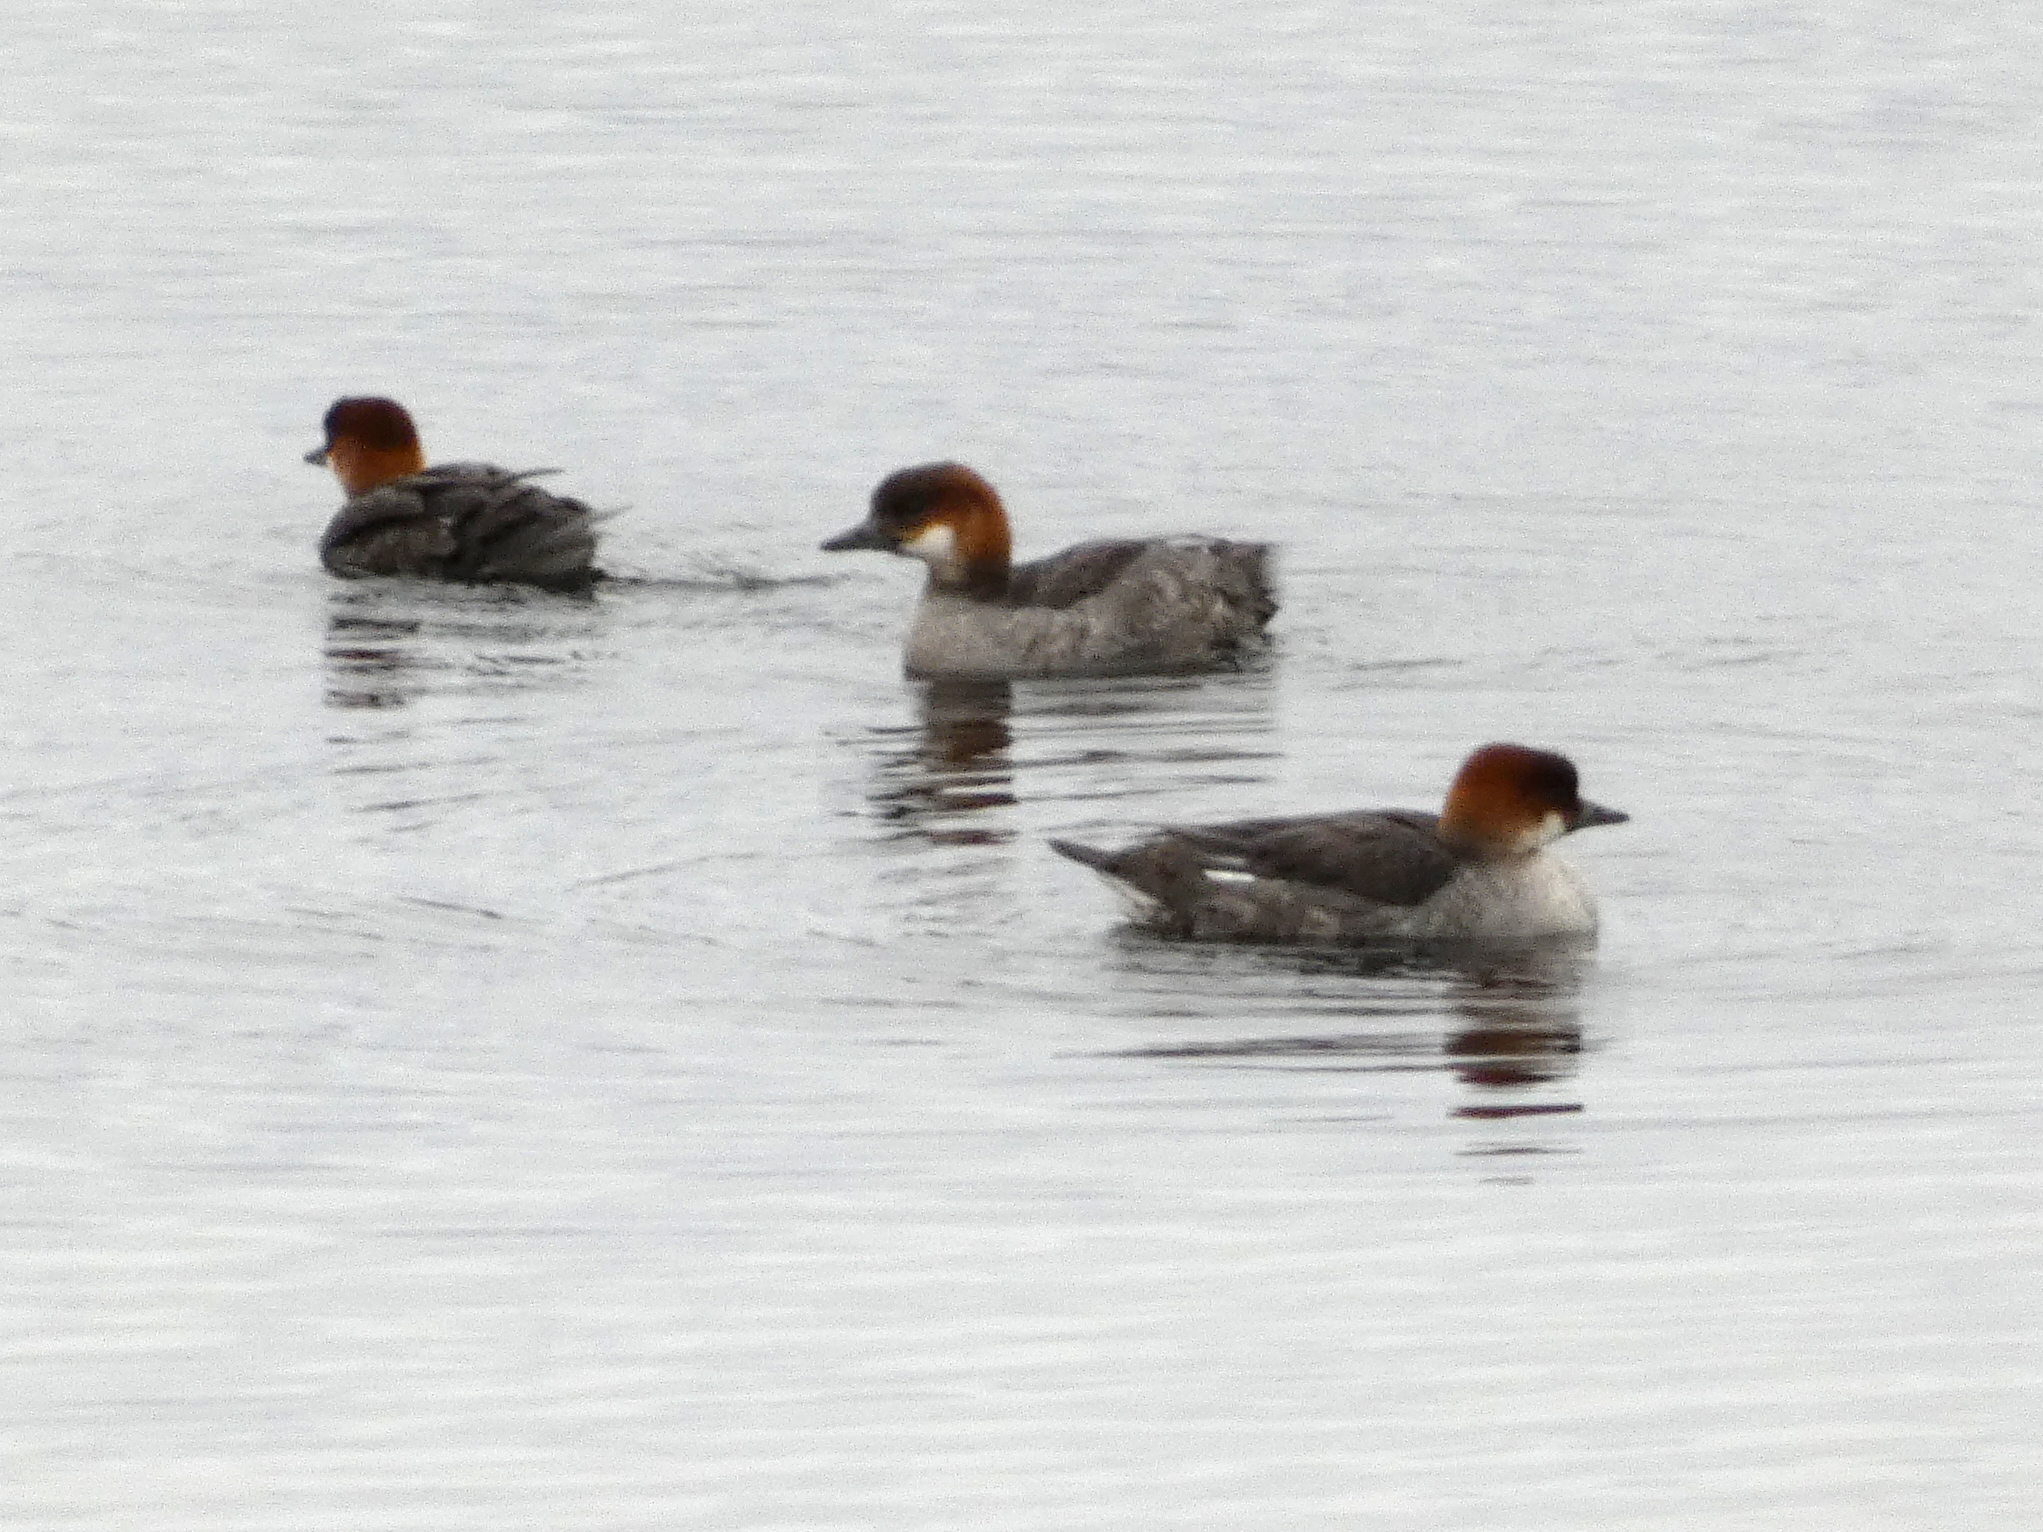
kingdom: Animalia
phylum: Chordata
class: Aves
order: Anseriformes
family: Anatidae
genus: Mergellus
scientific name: Mergellus albellus
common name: Smew
